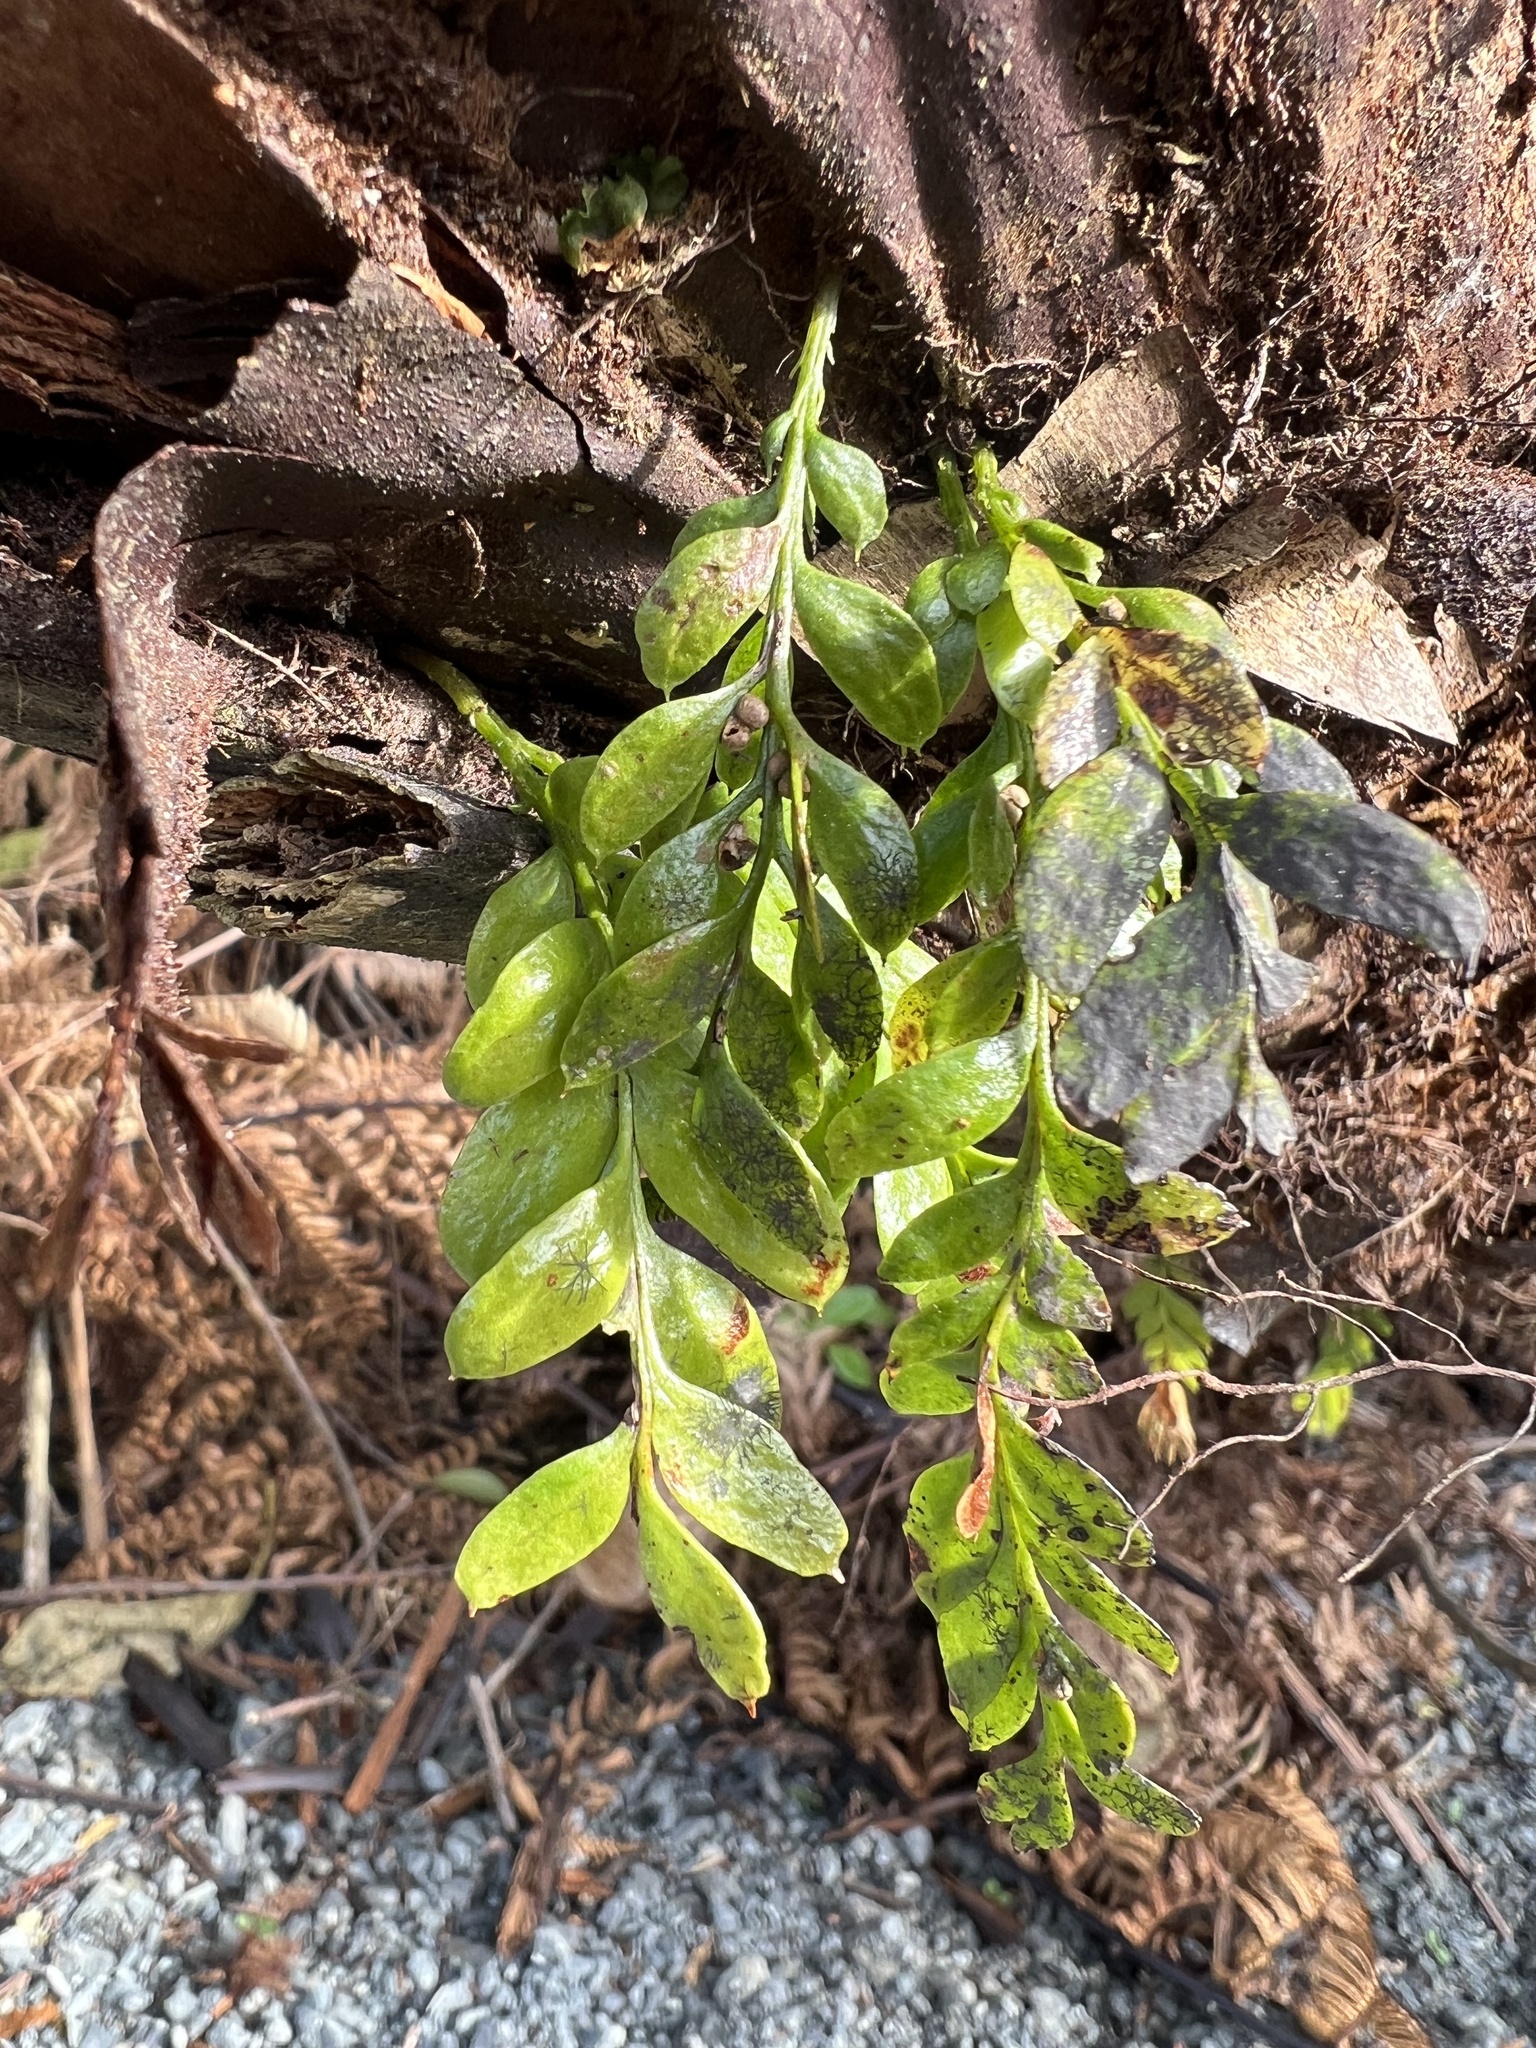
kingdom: Plantae
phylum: Tracheophyta
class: Polypodiopsida
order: Psilotales
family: Psilotaceae
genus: Tmesipteris
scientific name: Tmesipteris lanceolata
